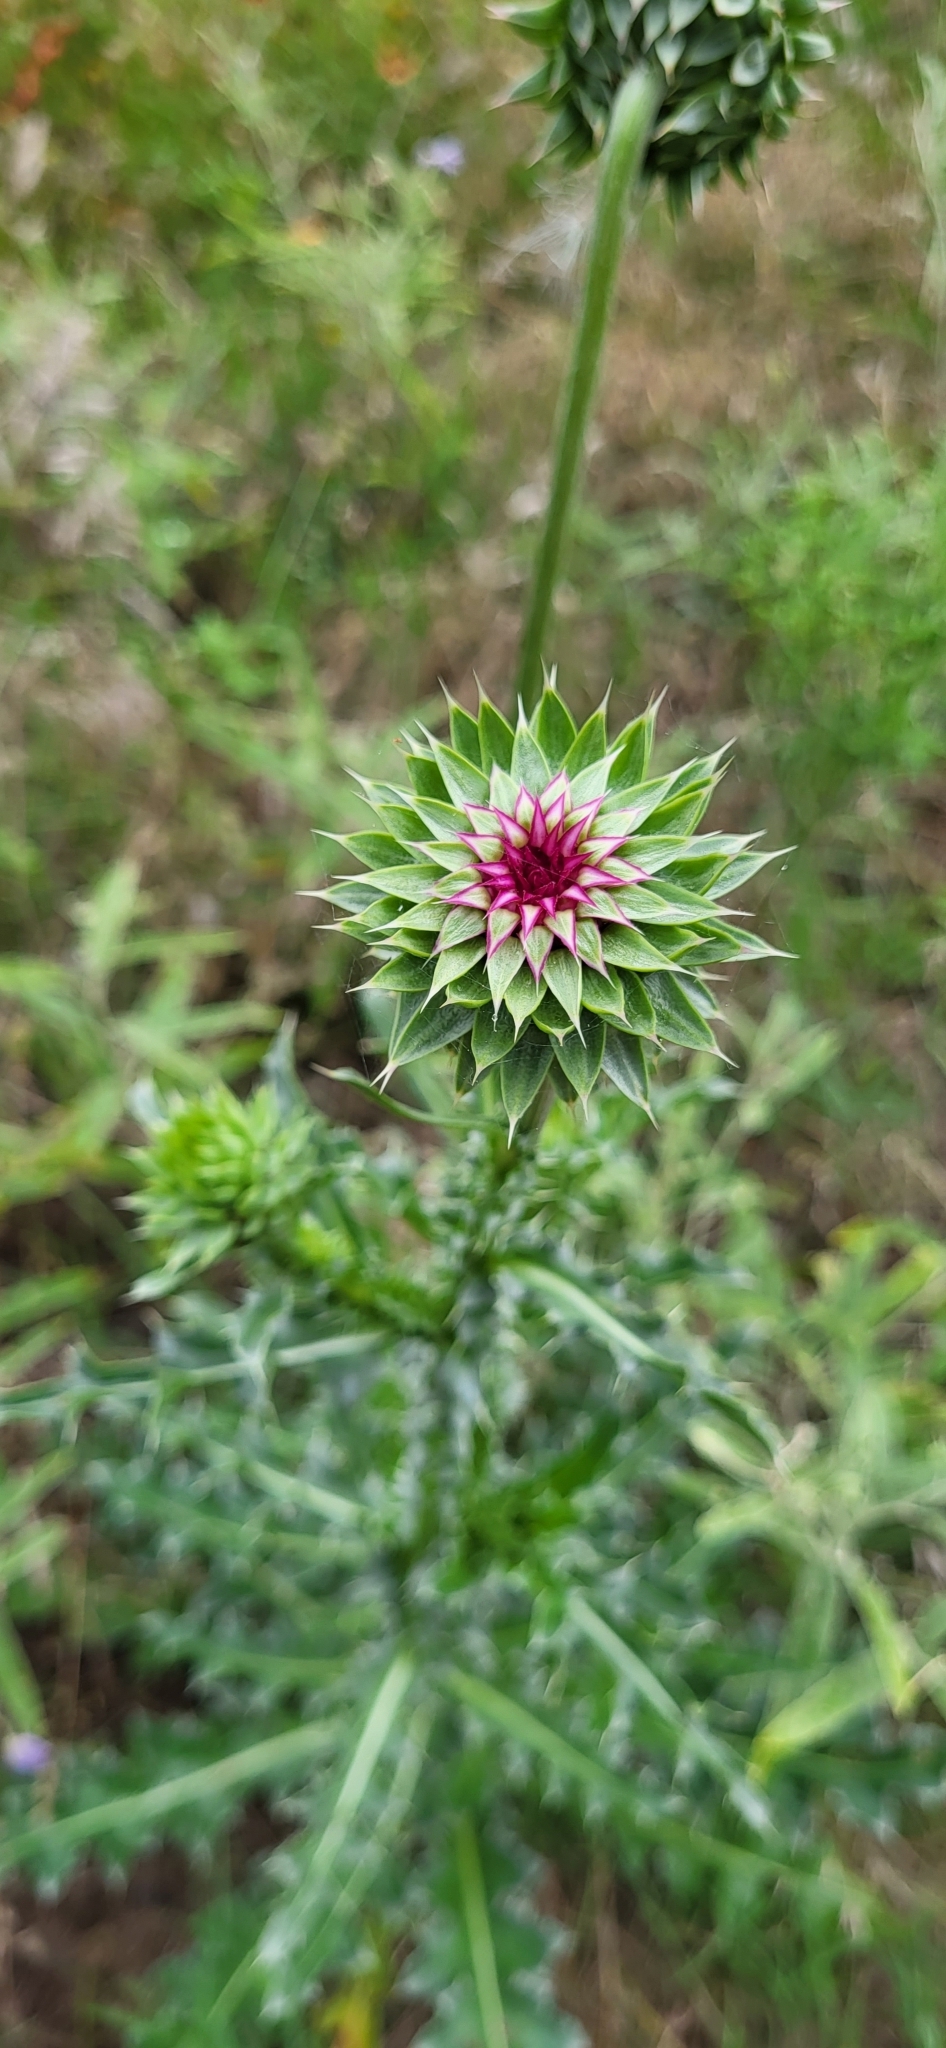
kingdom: Plantae
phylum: Tracheophyta
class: Magnoliopsida
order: Asterales
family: Asteraceae
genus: Carduus
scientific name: Carduus nutans
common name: Musk thistle
